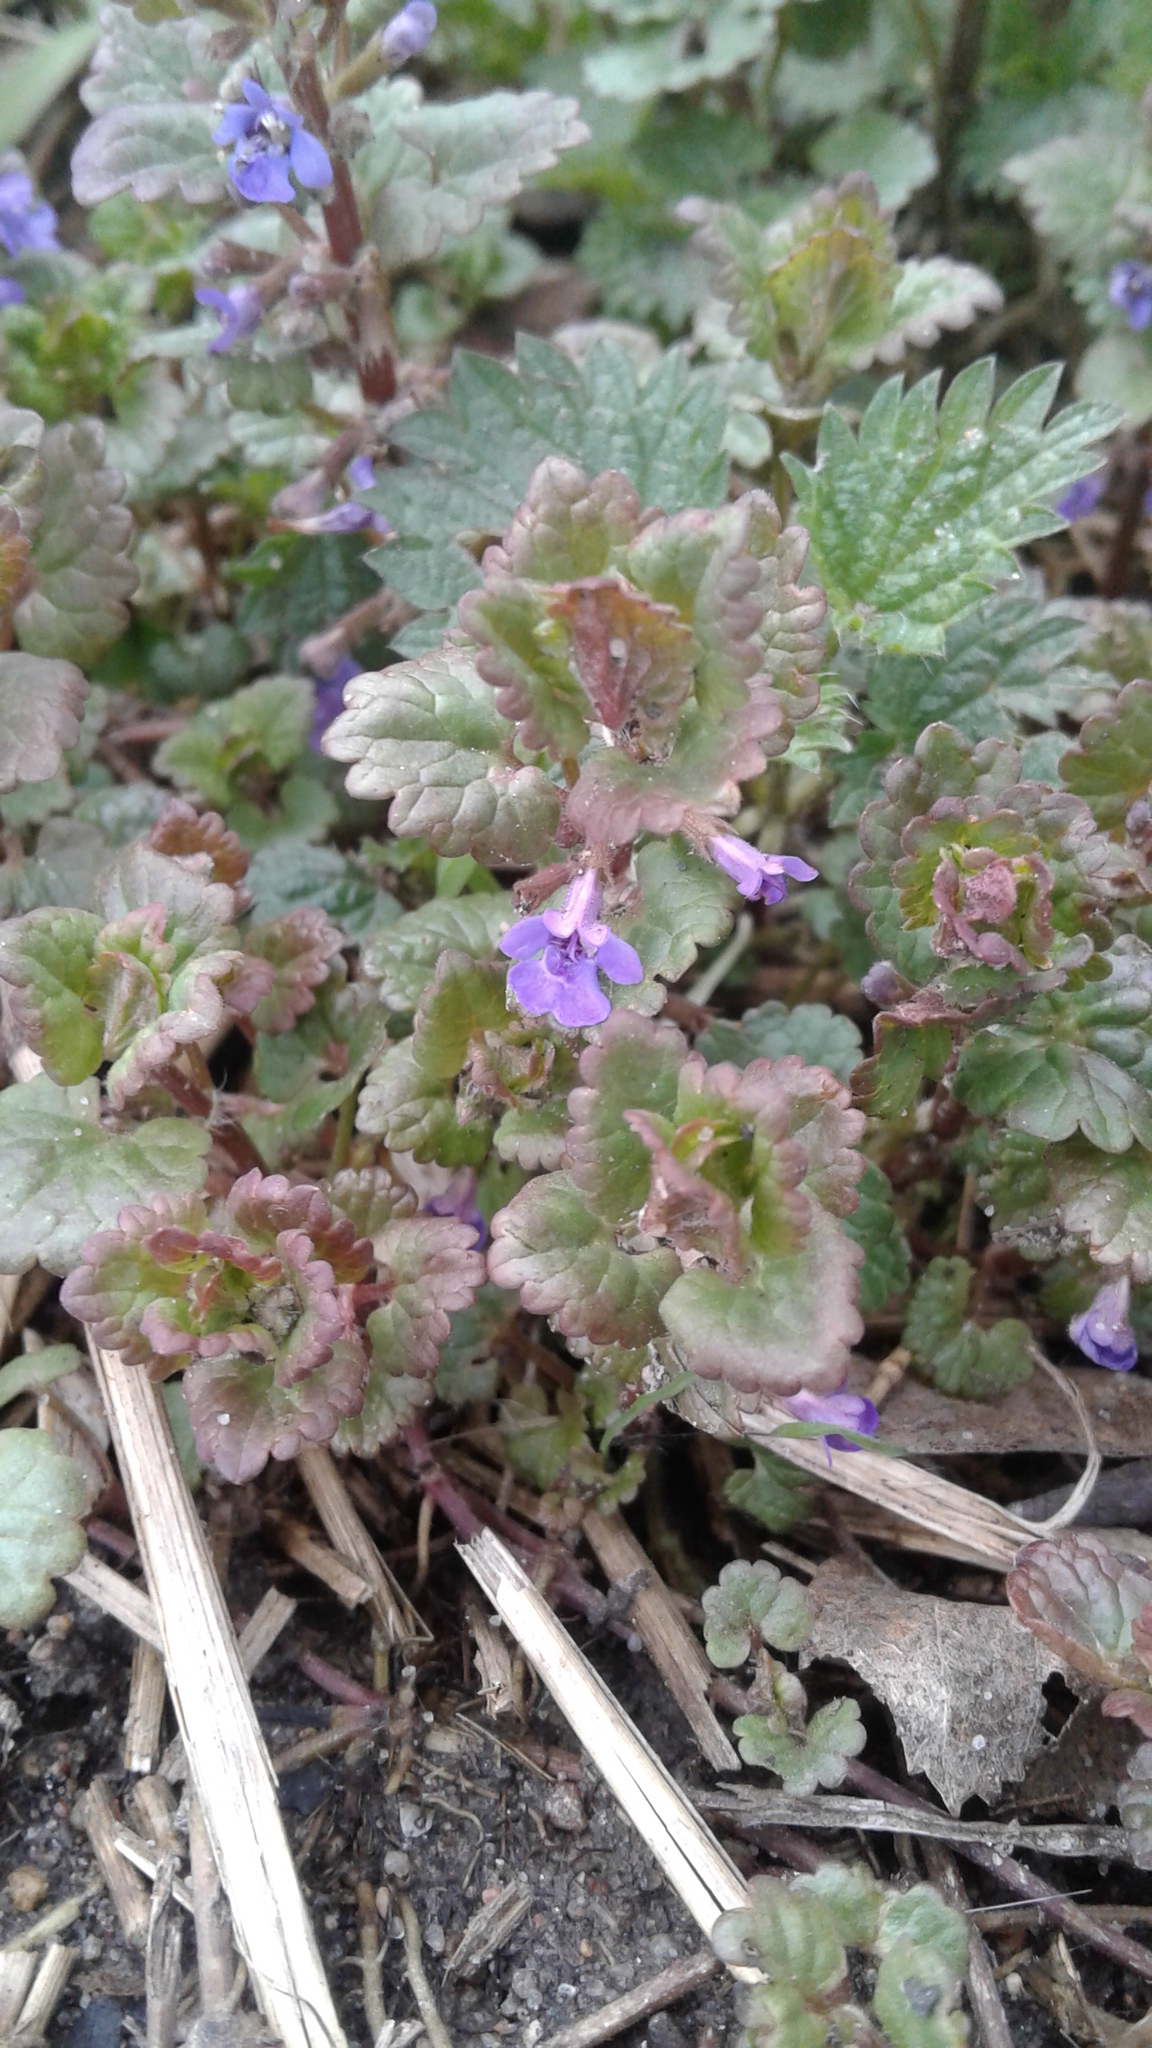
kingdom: Plantae
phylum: Tracheophyta
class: Magnoliopsida
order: Lamiales
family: Lamiaceae
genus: Glechoma
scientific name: Glechoma hederacea
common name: Ground ivy
